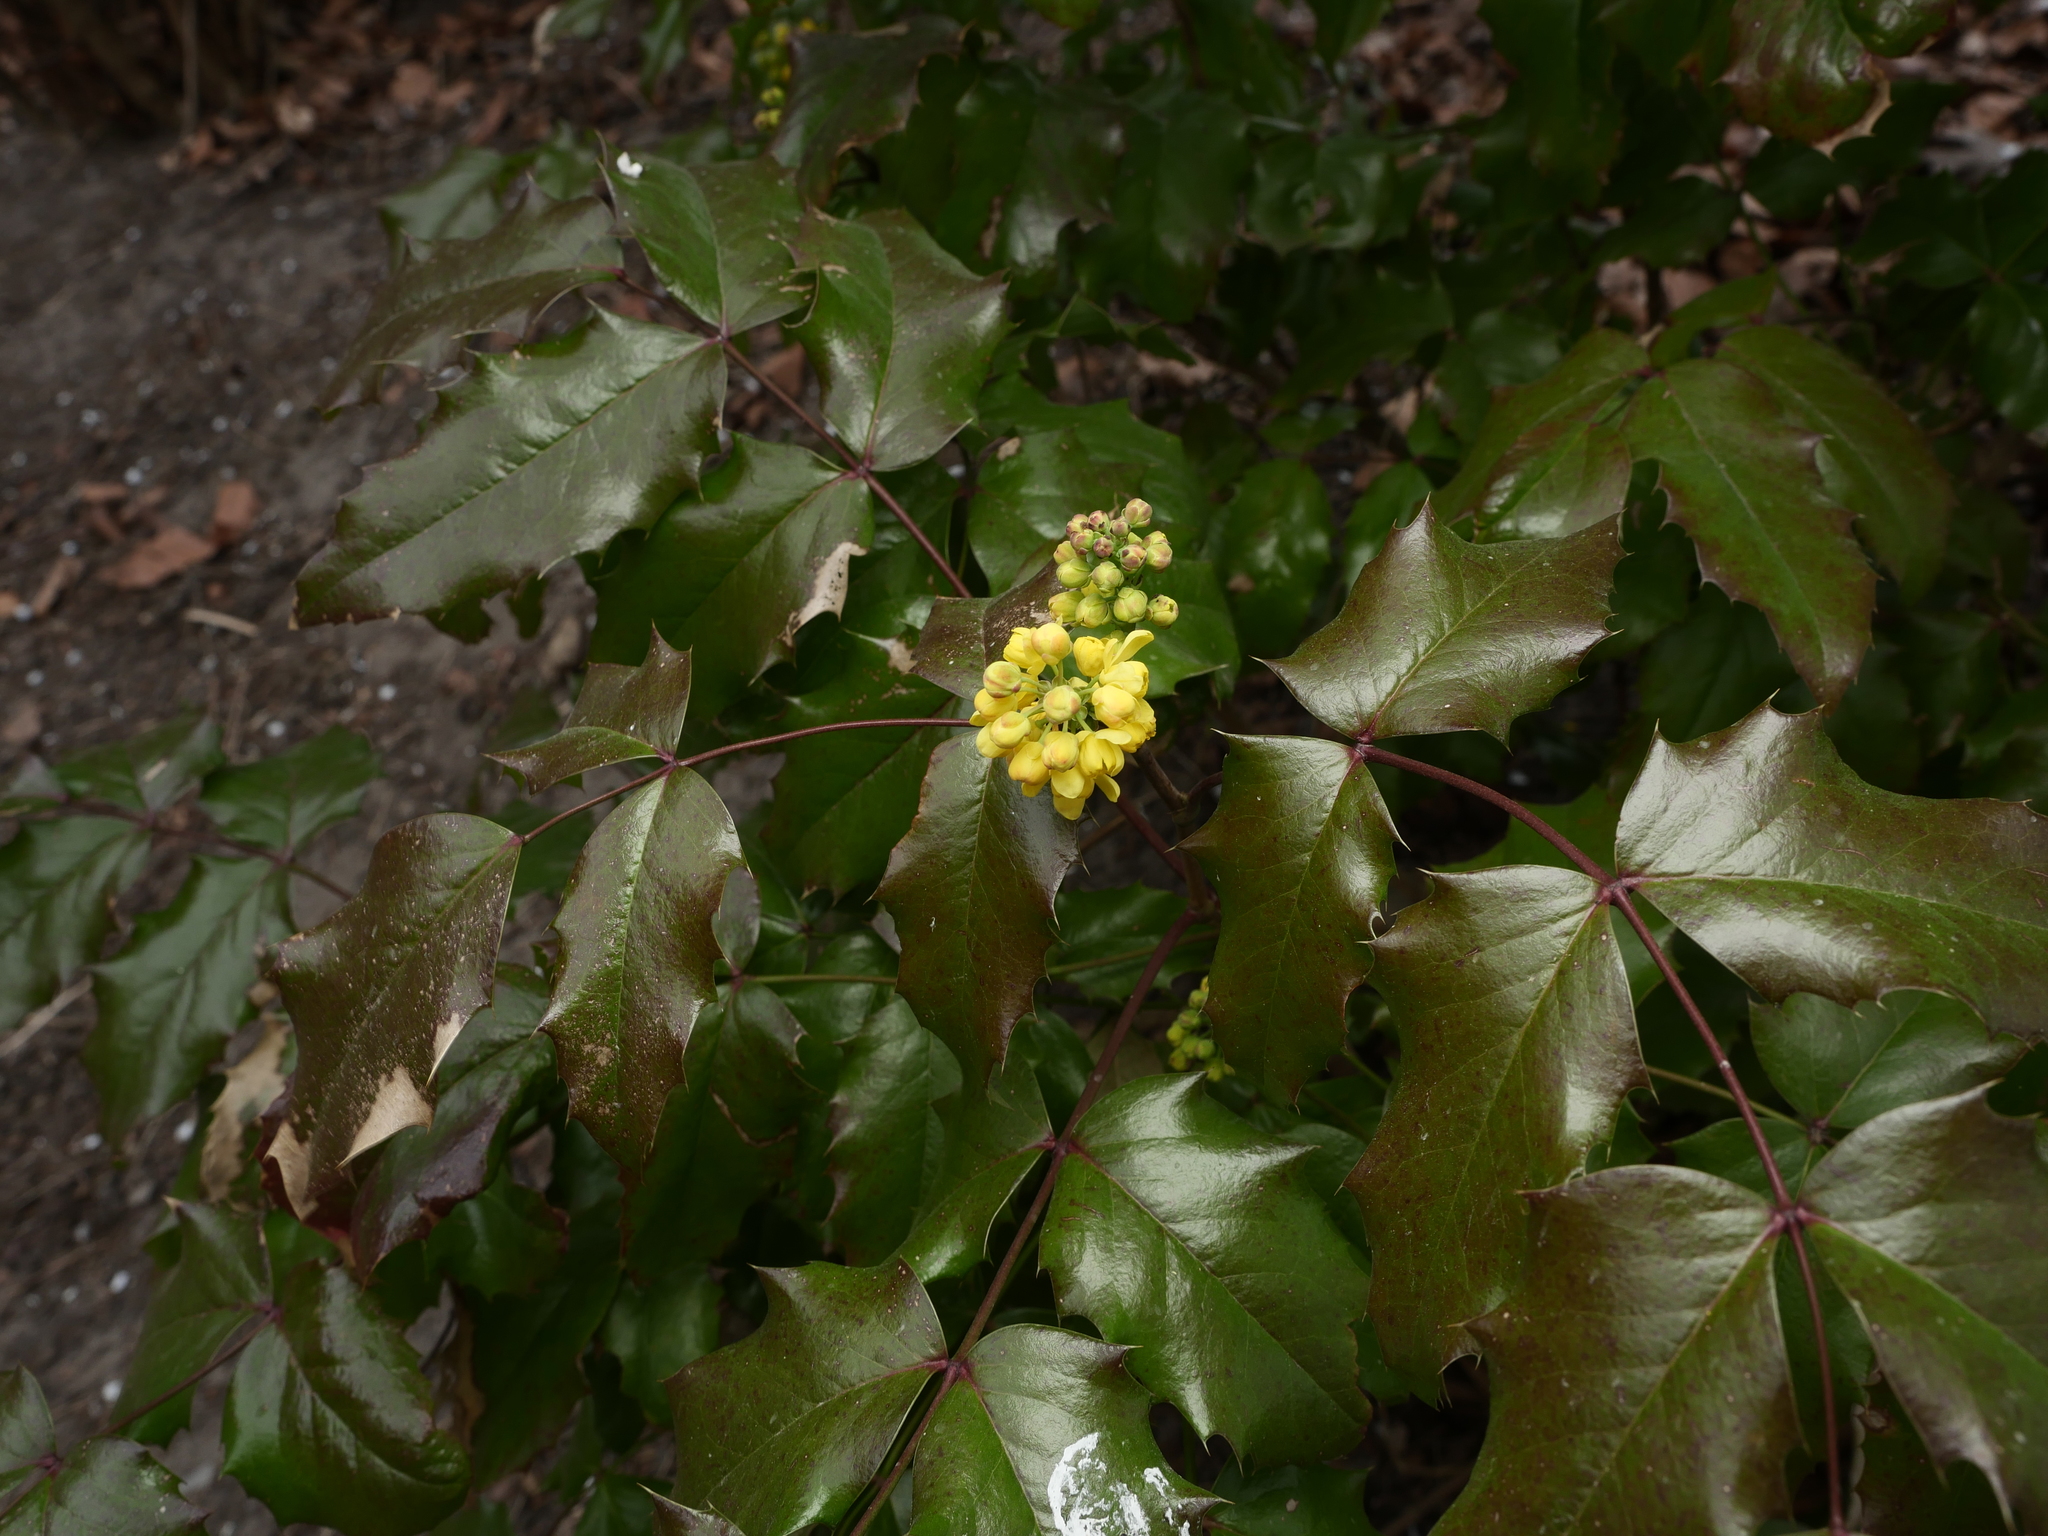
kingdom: Plantae
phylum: Tracheophyta
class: Magnoliopsida
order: Ranunculales
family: Berberidaceae
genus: Mahonia
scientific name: Mahonia aquifolium
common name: Oregon-grape
